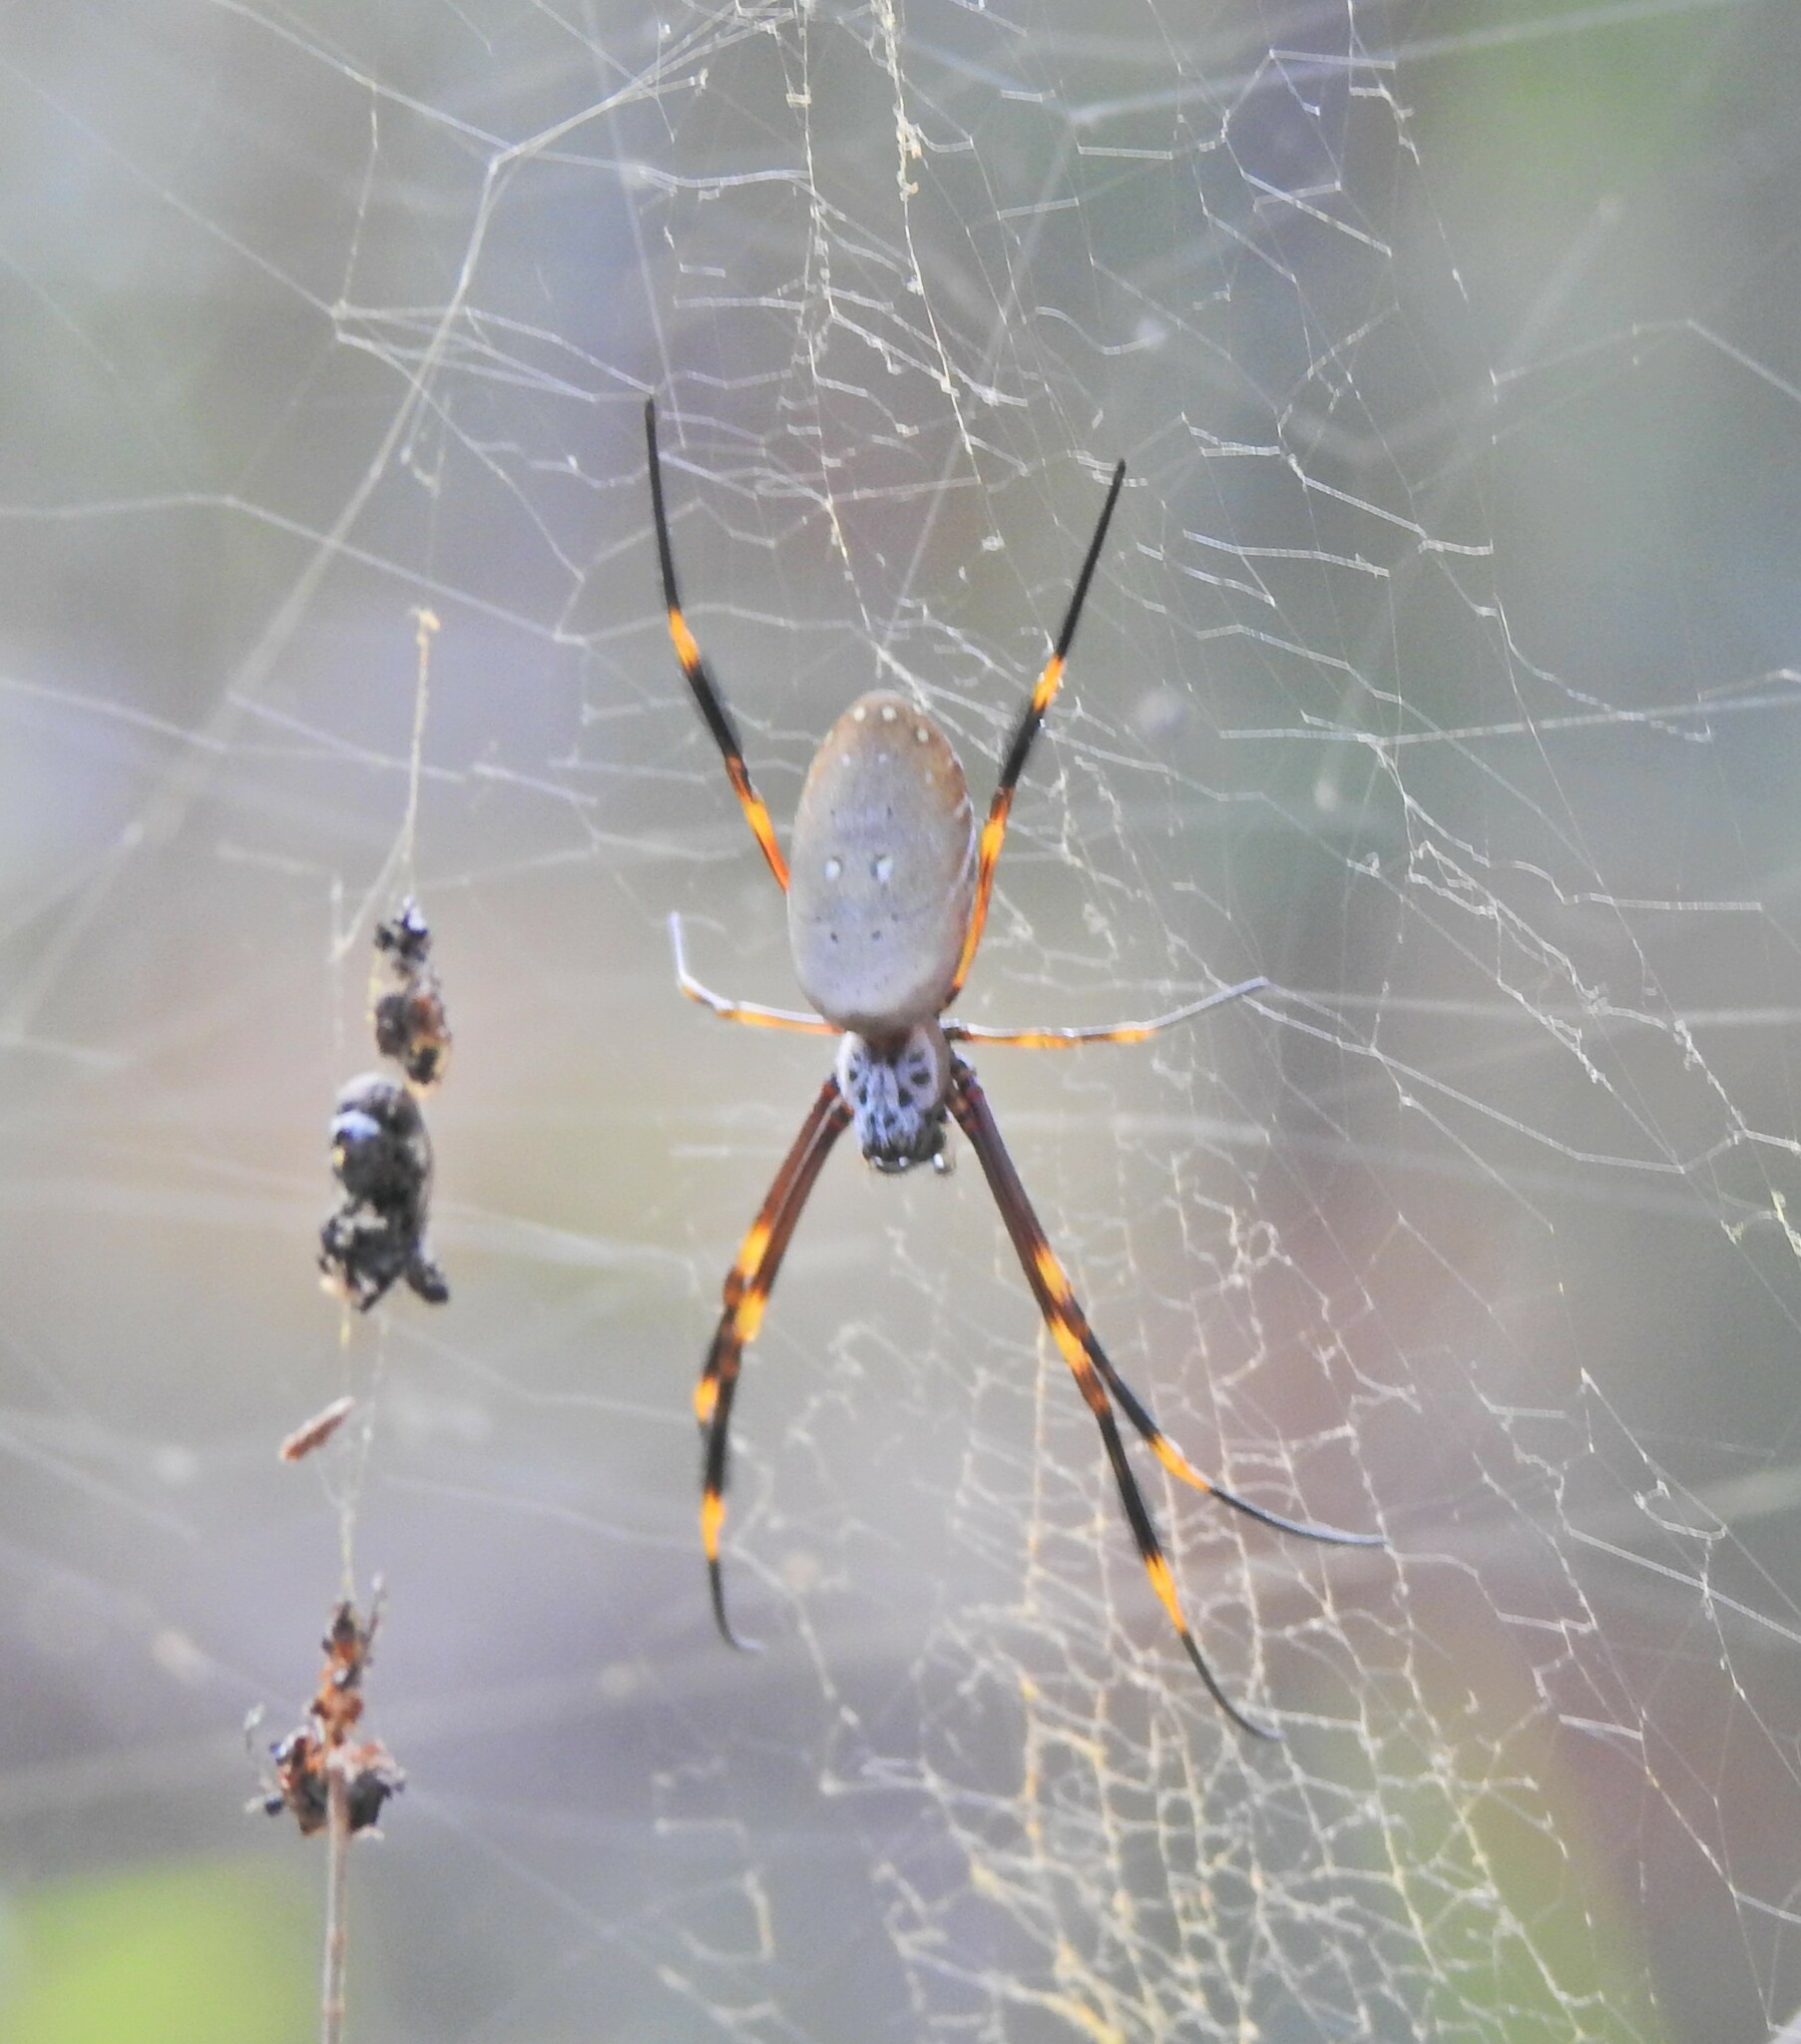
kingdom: Animalia
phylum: Arthropoda
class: Arachnida
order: Araneae
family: Araneidae
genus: Trichonephila
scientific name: Trichonephila plumipes
